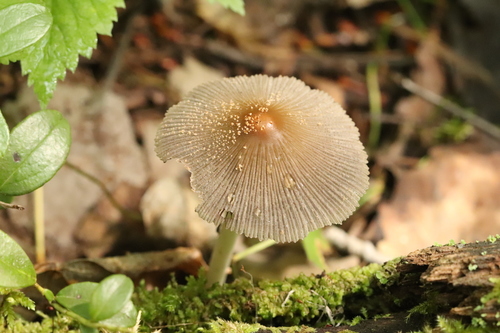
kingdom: Fungi
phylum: Basidiomycota
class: Agaricomycetes
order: Agaricales
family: Psathyrellaceae
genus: Coprinellus
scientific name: Coprinellus domesticus
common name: Firerug inkcap
